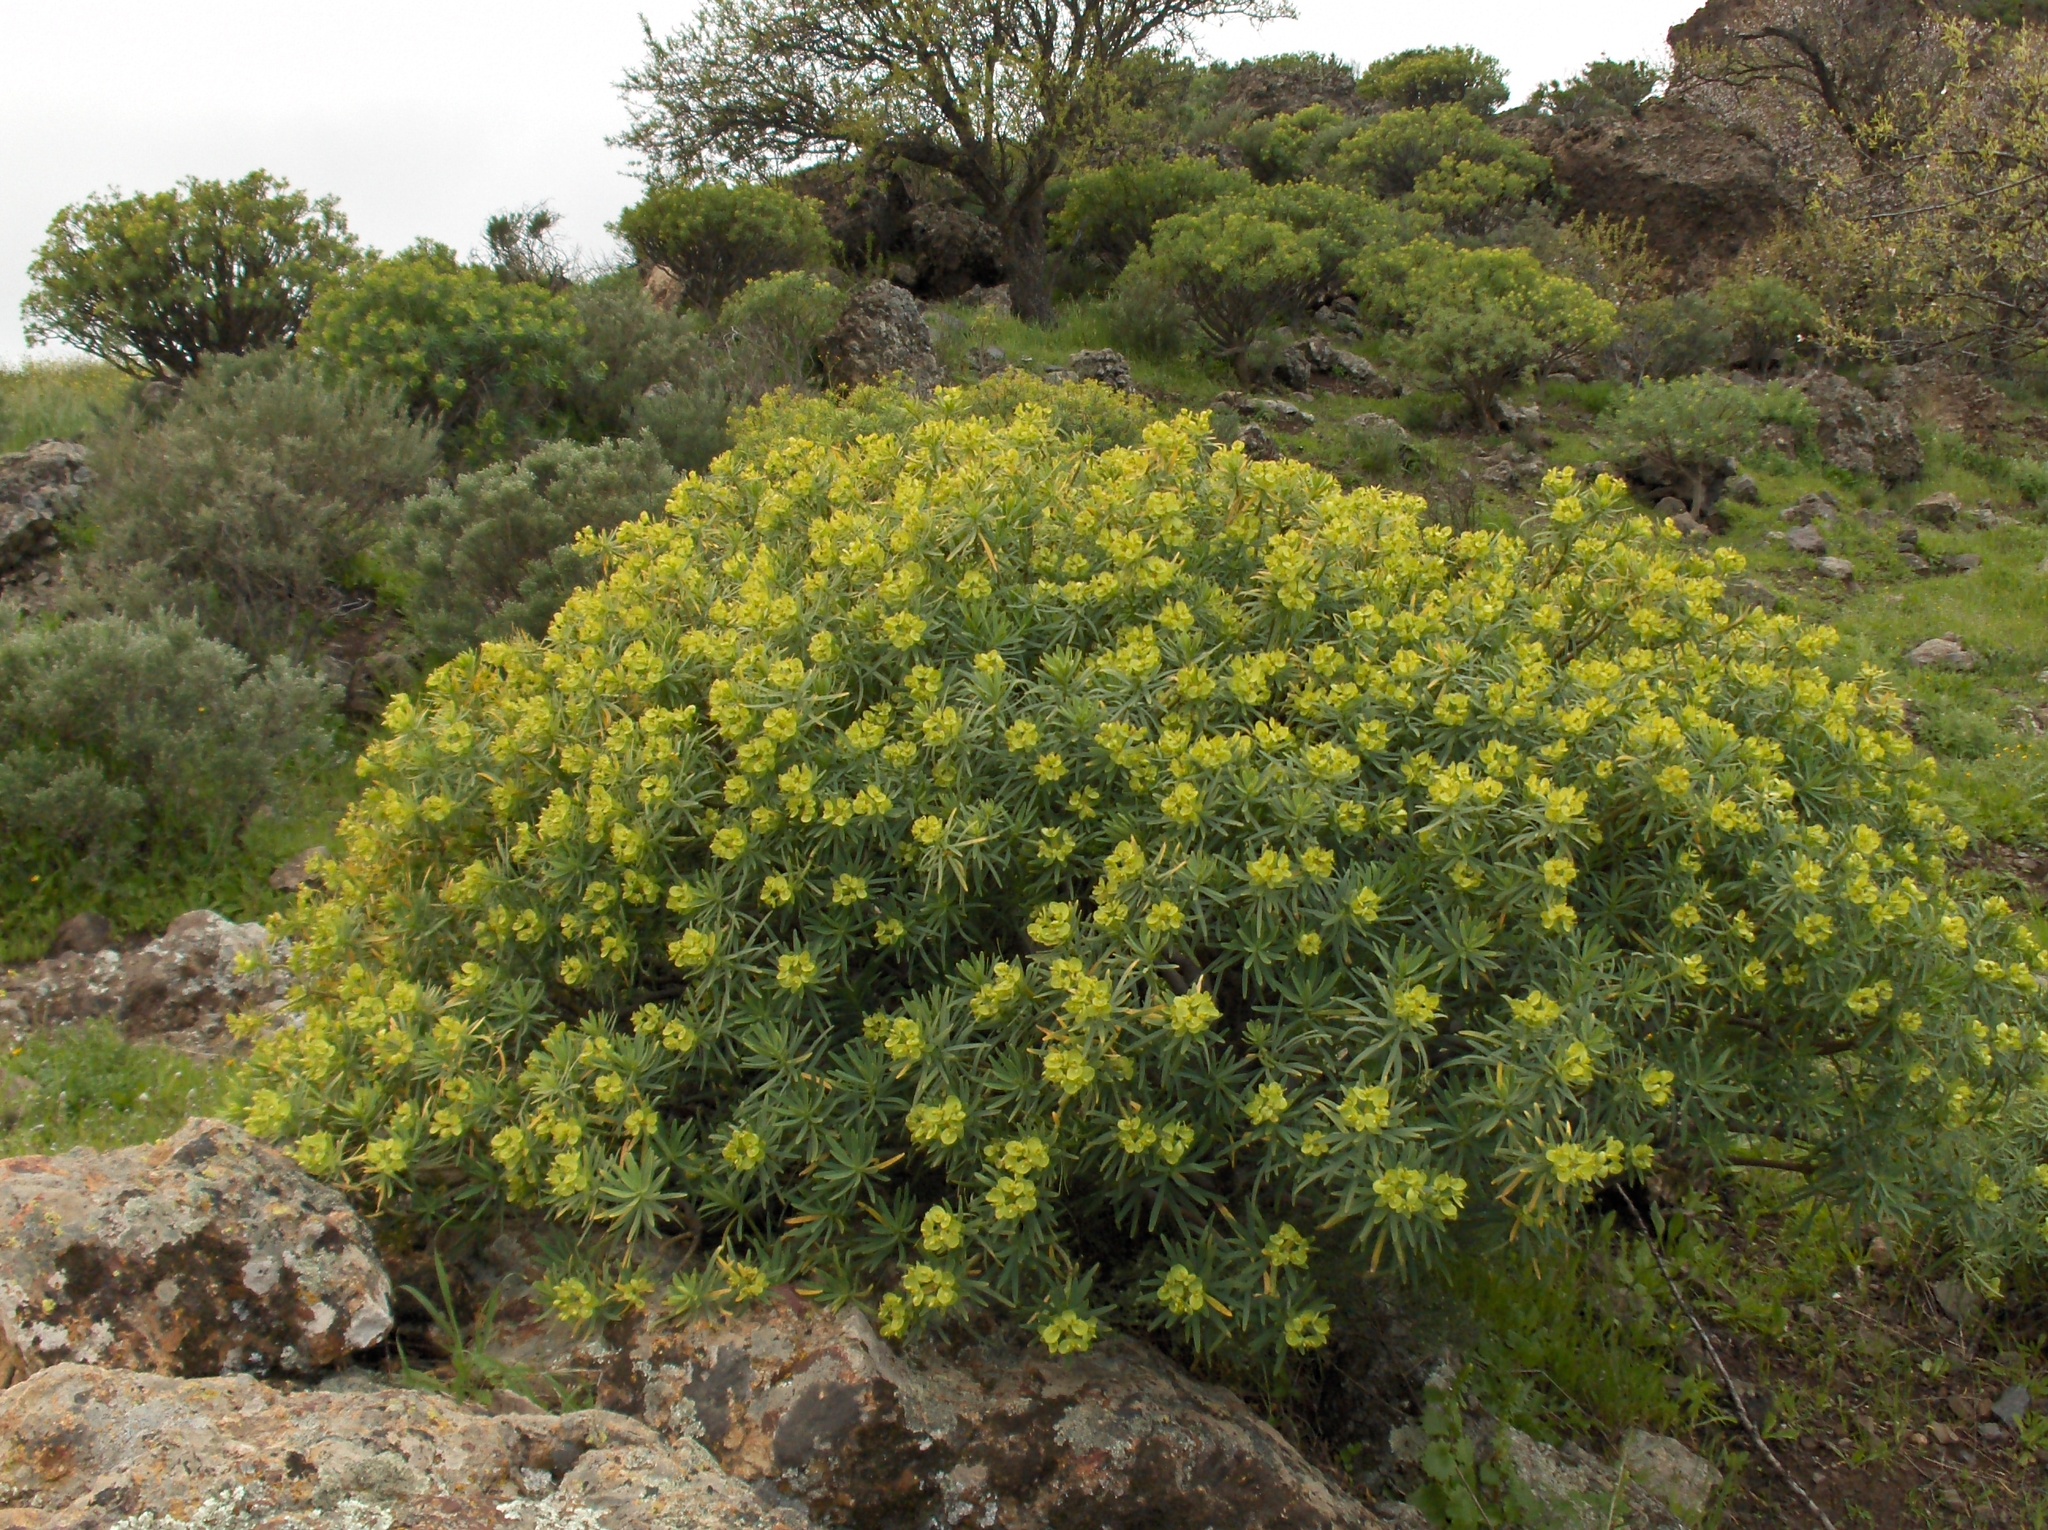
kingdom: Plantae
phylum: Tracheophyta
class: Magnoliopsida
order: Malpighiales
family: Euphorbiaceae
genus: Euphorbia
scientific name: Euphorbia regis-jubae
